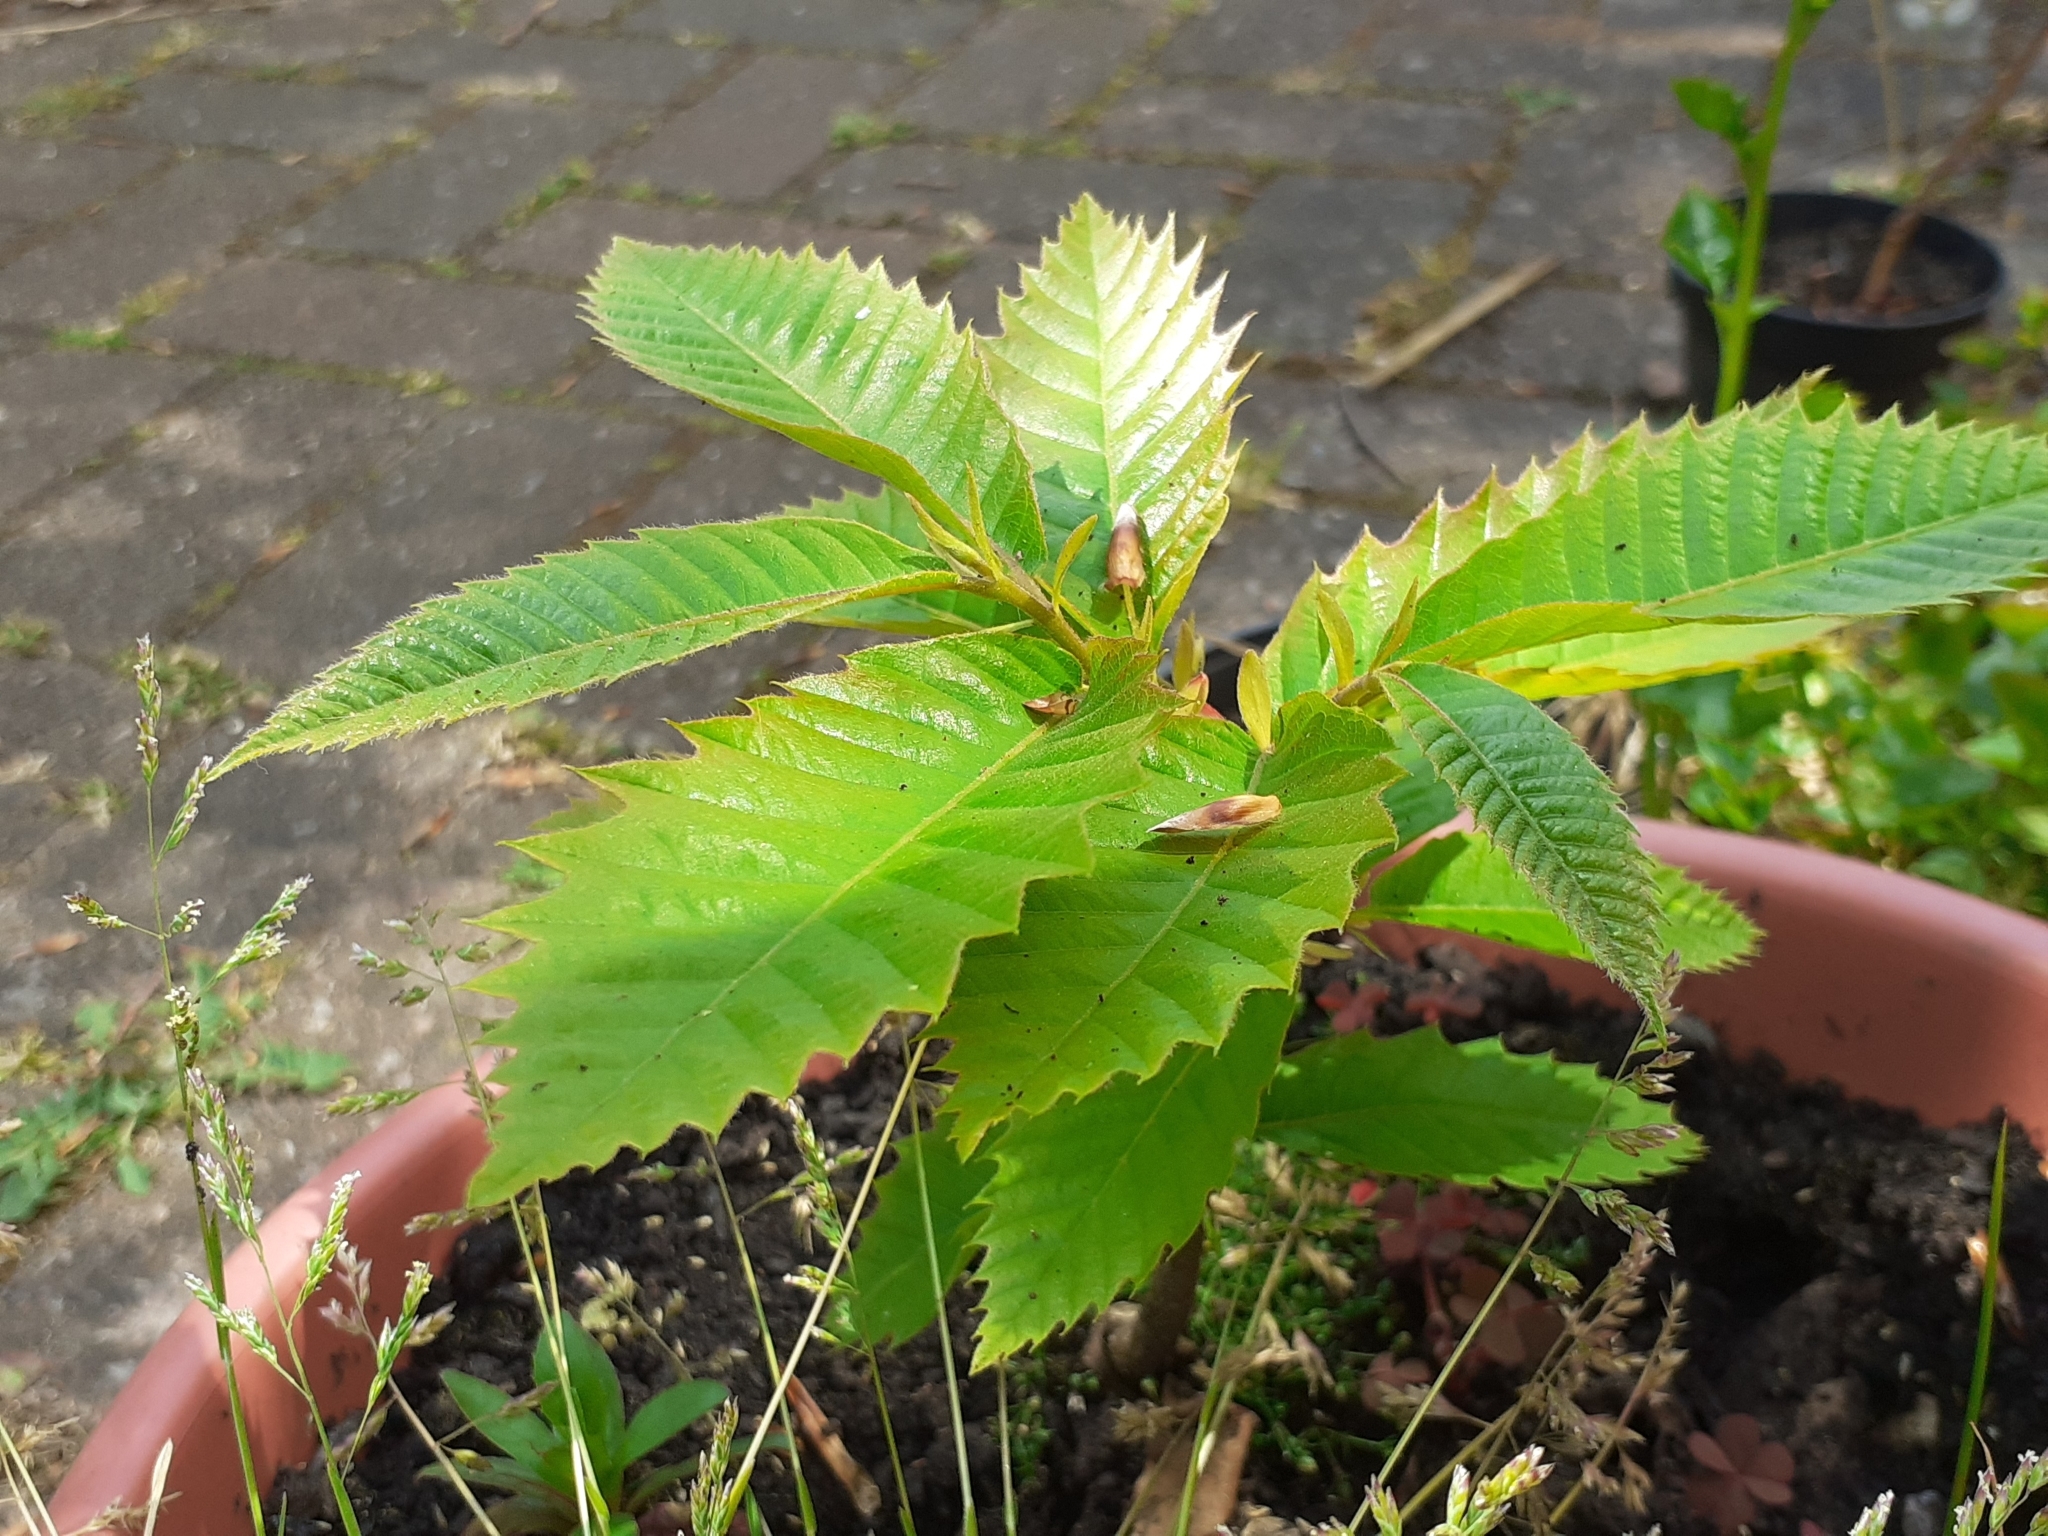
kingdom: Plantae
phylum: Tracheophyta
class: Magnoliopsida
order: Fagales
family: Fagaceae
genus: Castanea
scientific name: Castanea sativa
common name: Sweet chestnut
